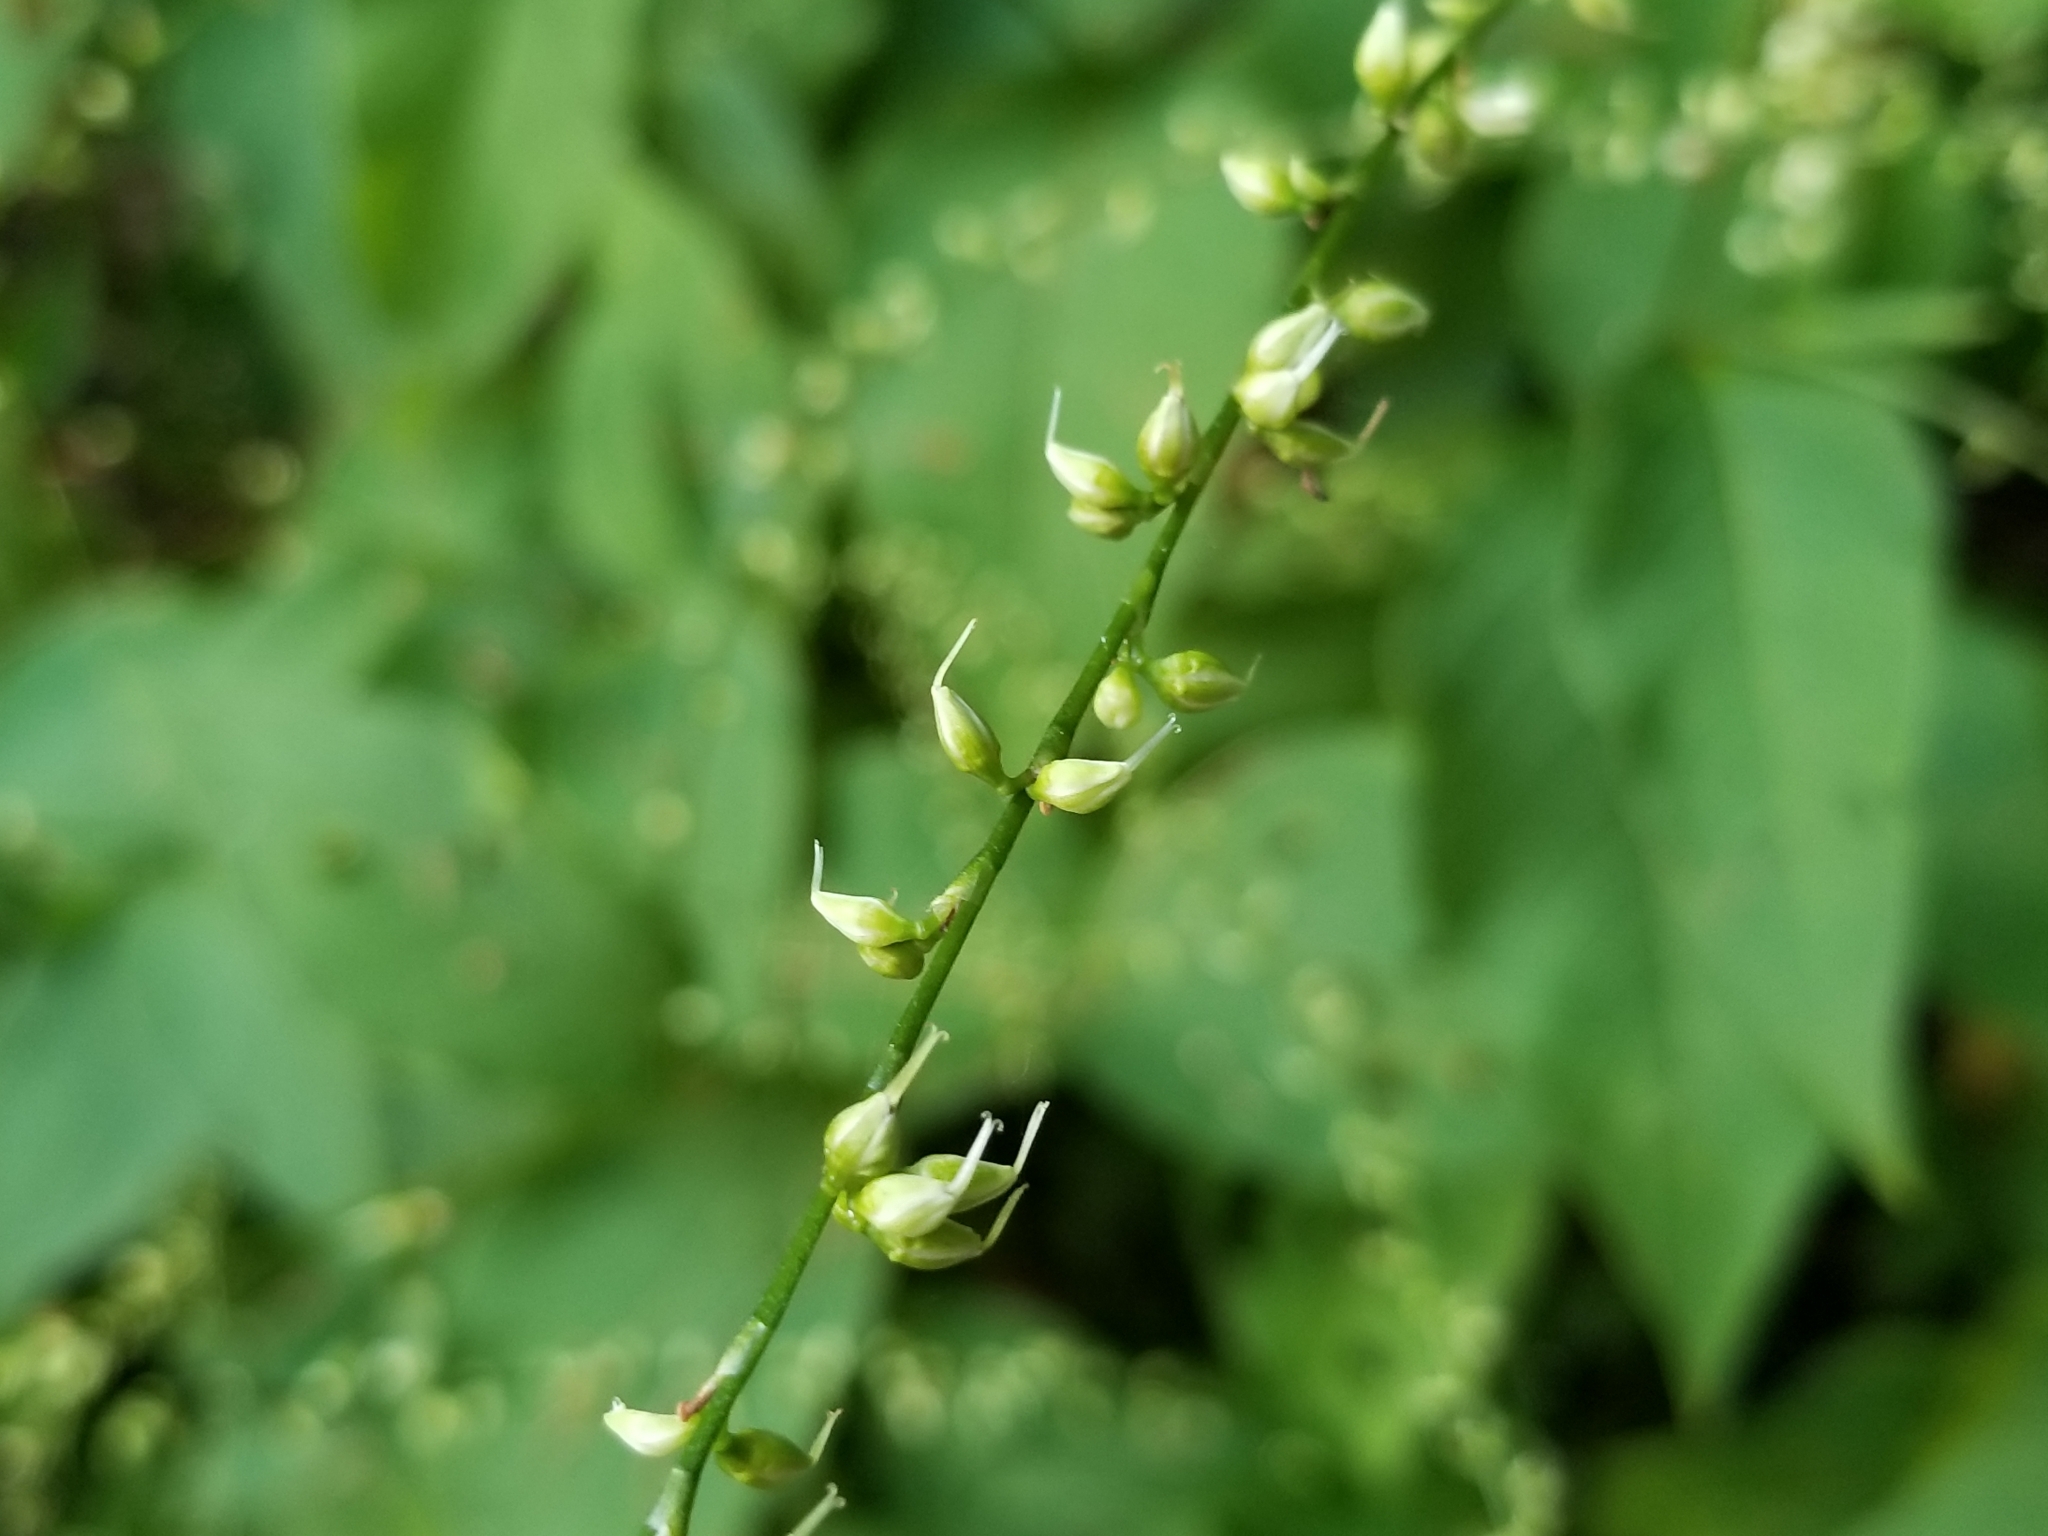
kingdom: Plantae
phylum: Tracheophyta
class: Magnoliopsida
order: Caryophyllales
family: Polygonaceae
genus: Persicaria
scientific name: Persicaria virginiana
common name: Jumpseed
